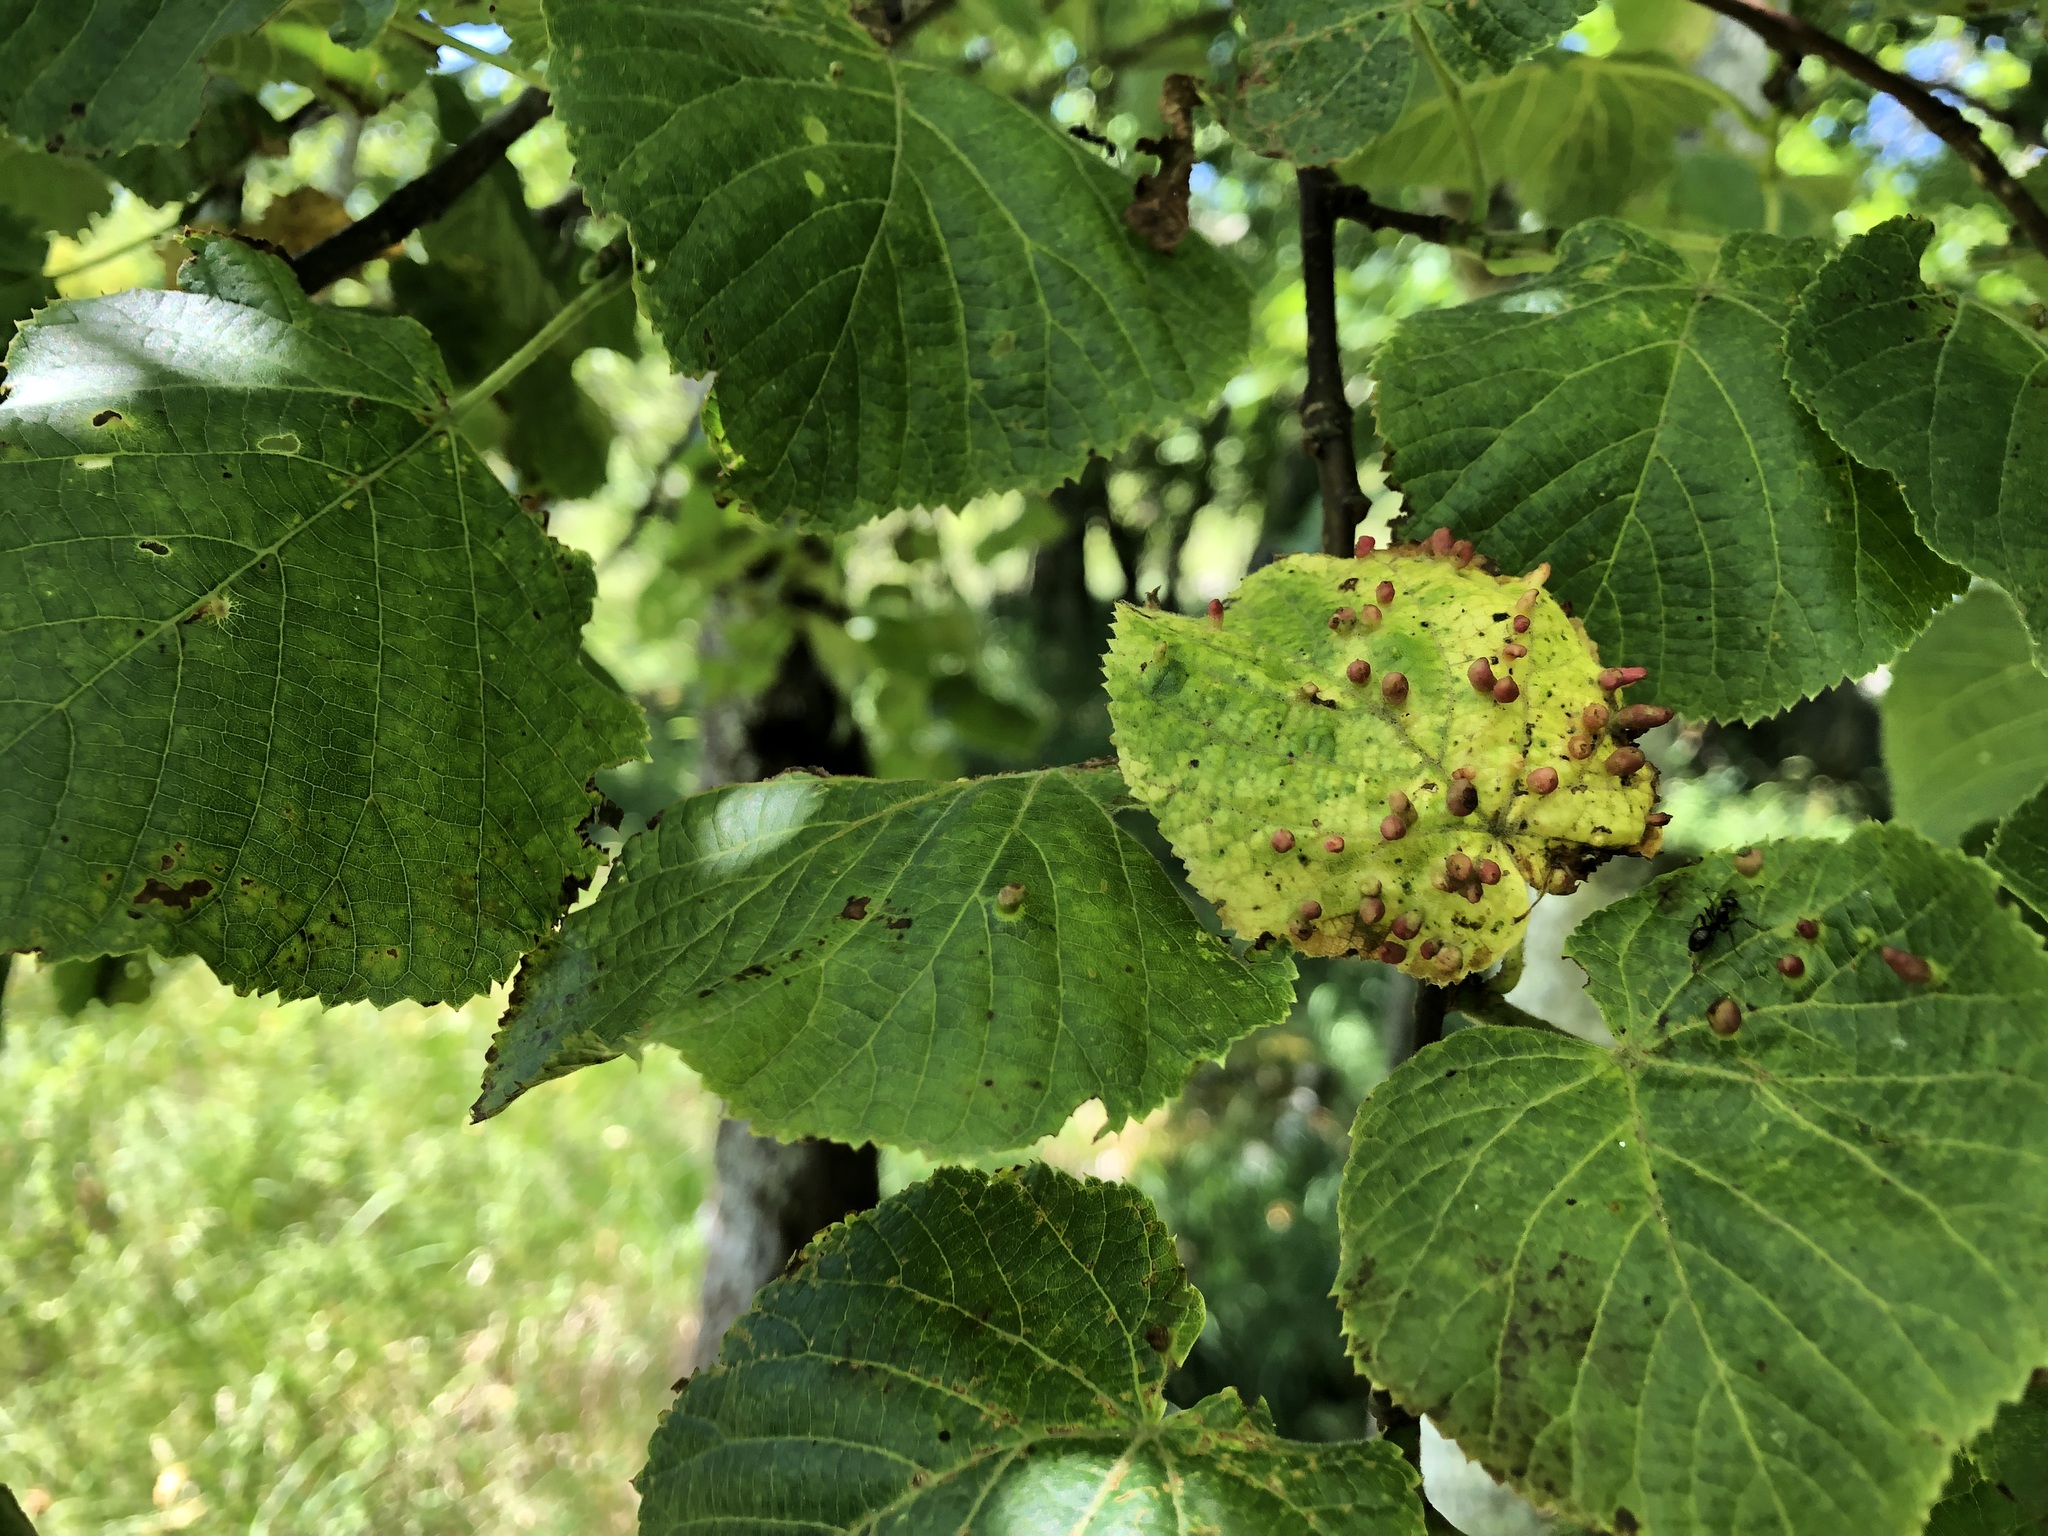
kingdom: Animalia
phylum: Arthropoda
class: Arachnida
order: Trombidiformes
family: Eriophyidae
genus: Eriophyes
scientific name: Eriophyes tiliae
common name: Red nail gall mite
